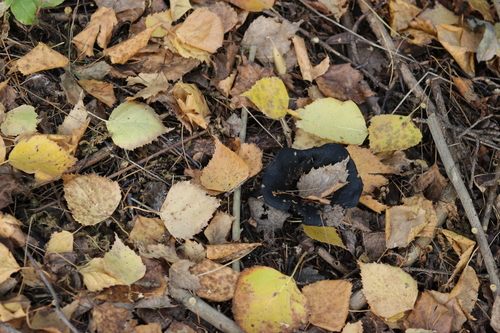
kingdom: Fungi
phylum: Basidiomycota
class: Agaricomycetes
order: Russulales
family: Russulaceae
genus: Lactarius
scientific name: Lactarius turpis
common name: Ugly milk-cap
